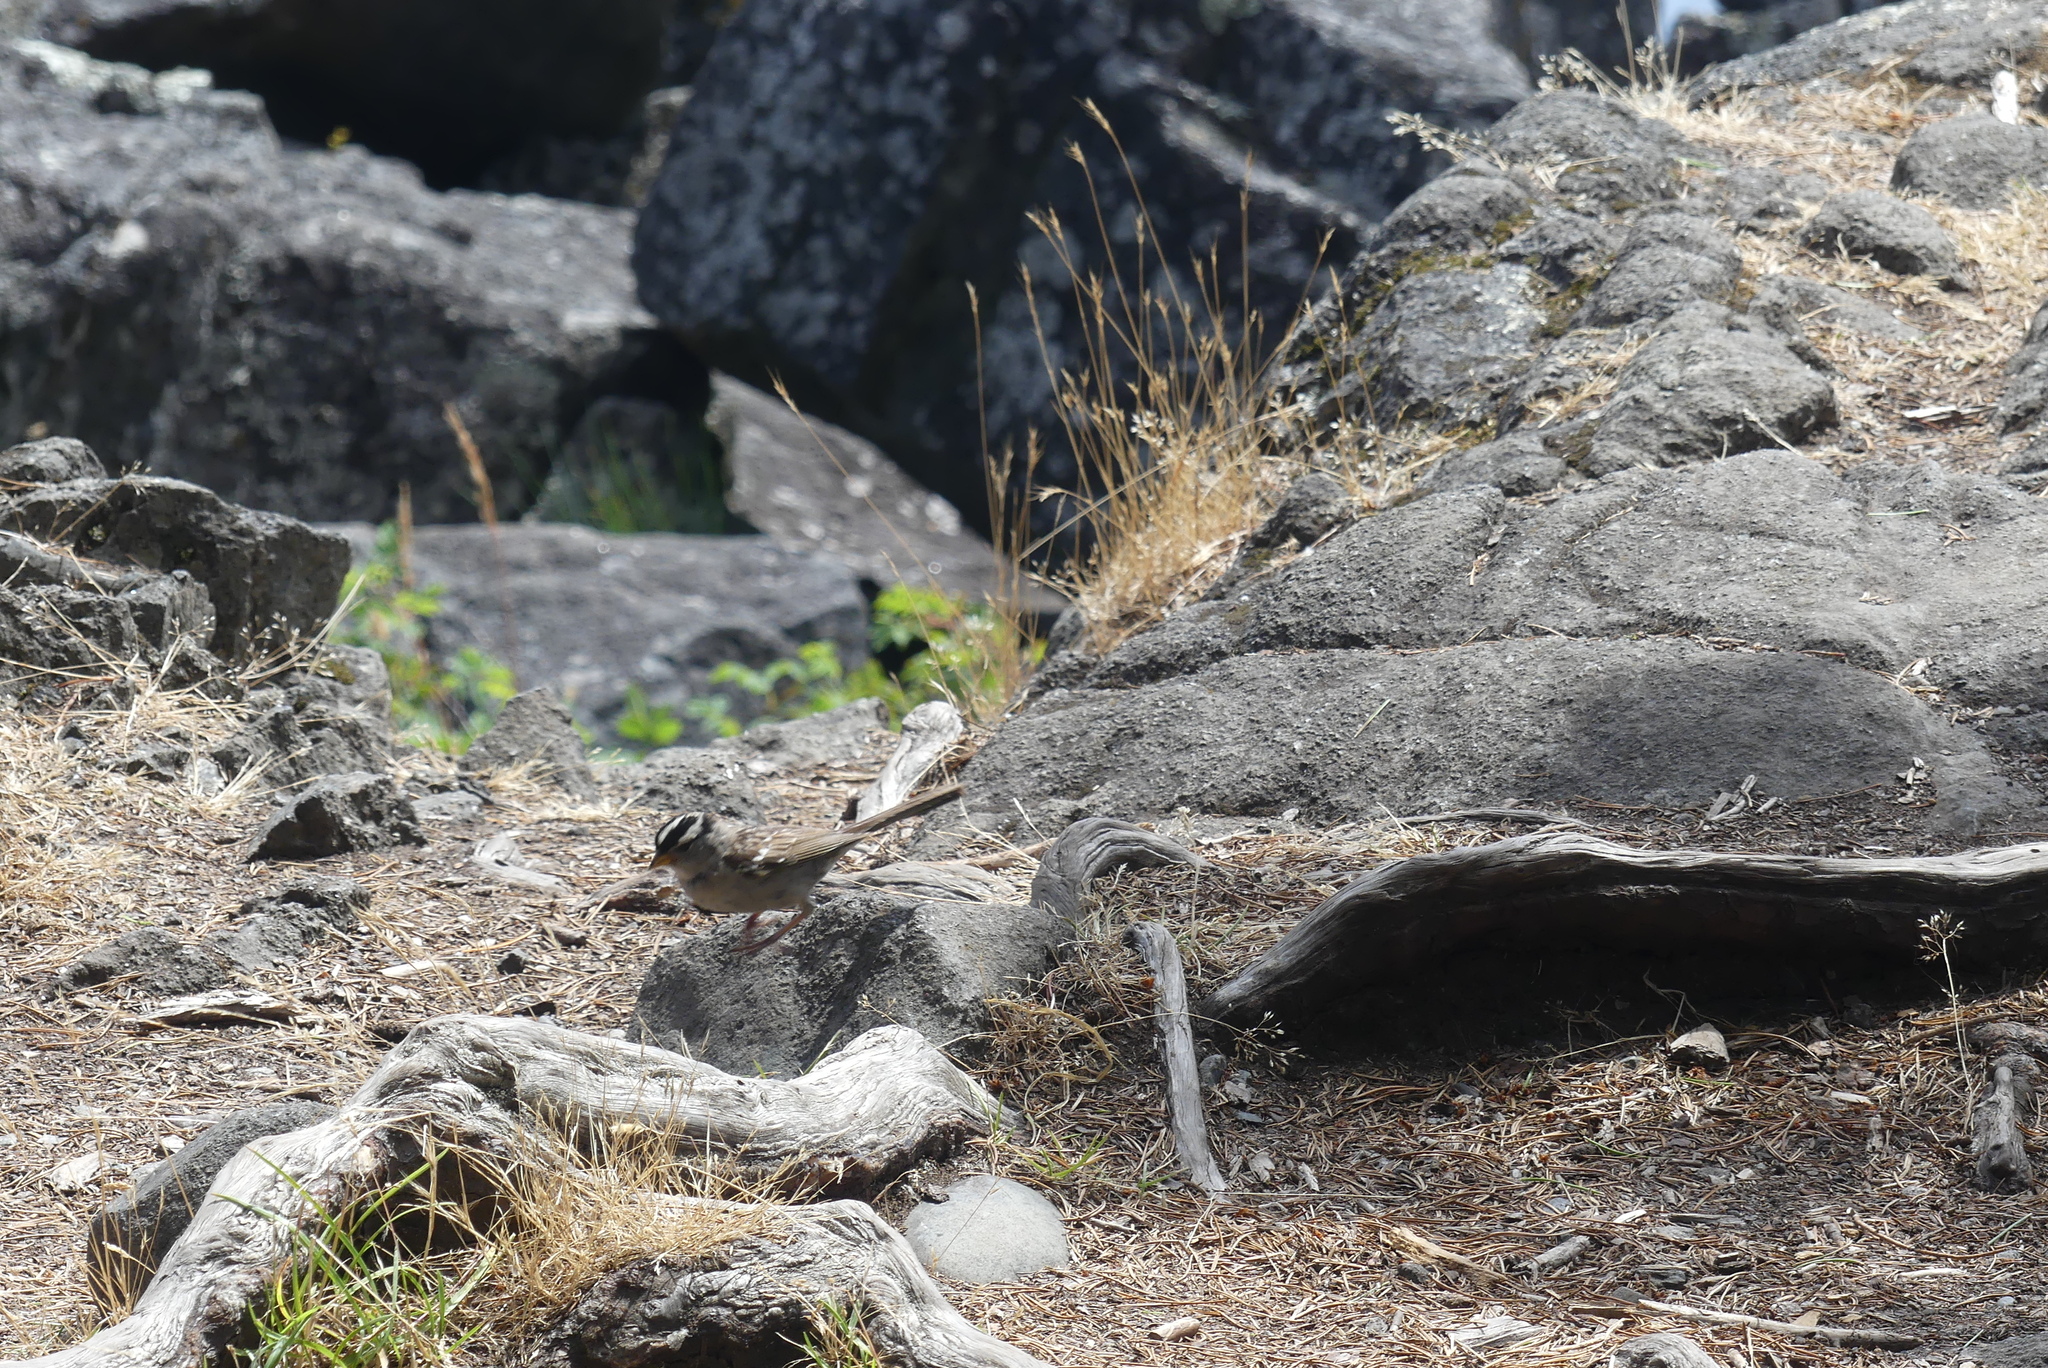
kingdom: Animalia
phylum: Chordata
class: Aves
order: Passeriformes
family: Passerellidae
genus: Zonotrichia
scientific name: Zonotrichia leucophrys
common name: White-crowned sparrow
